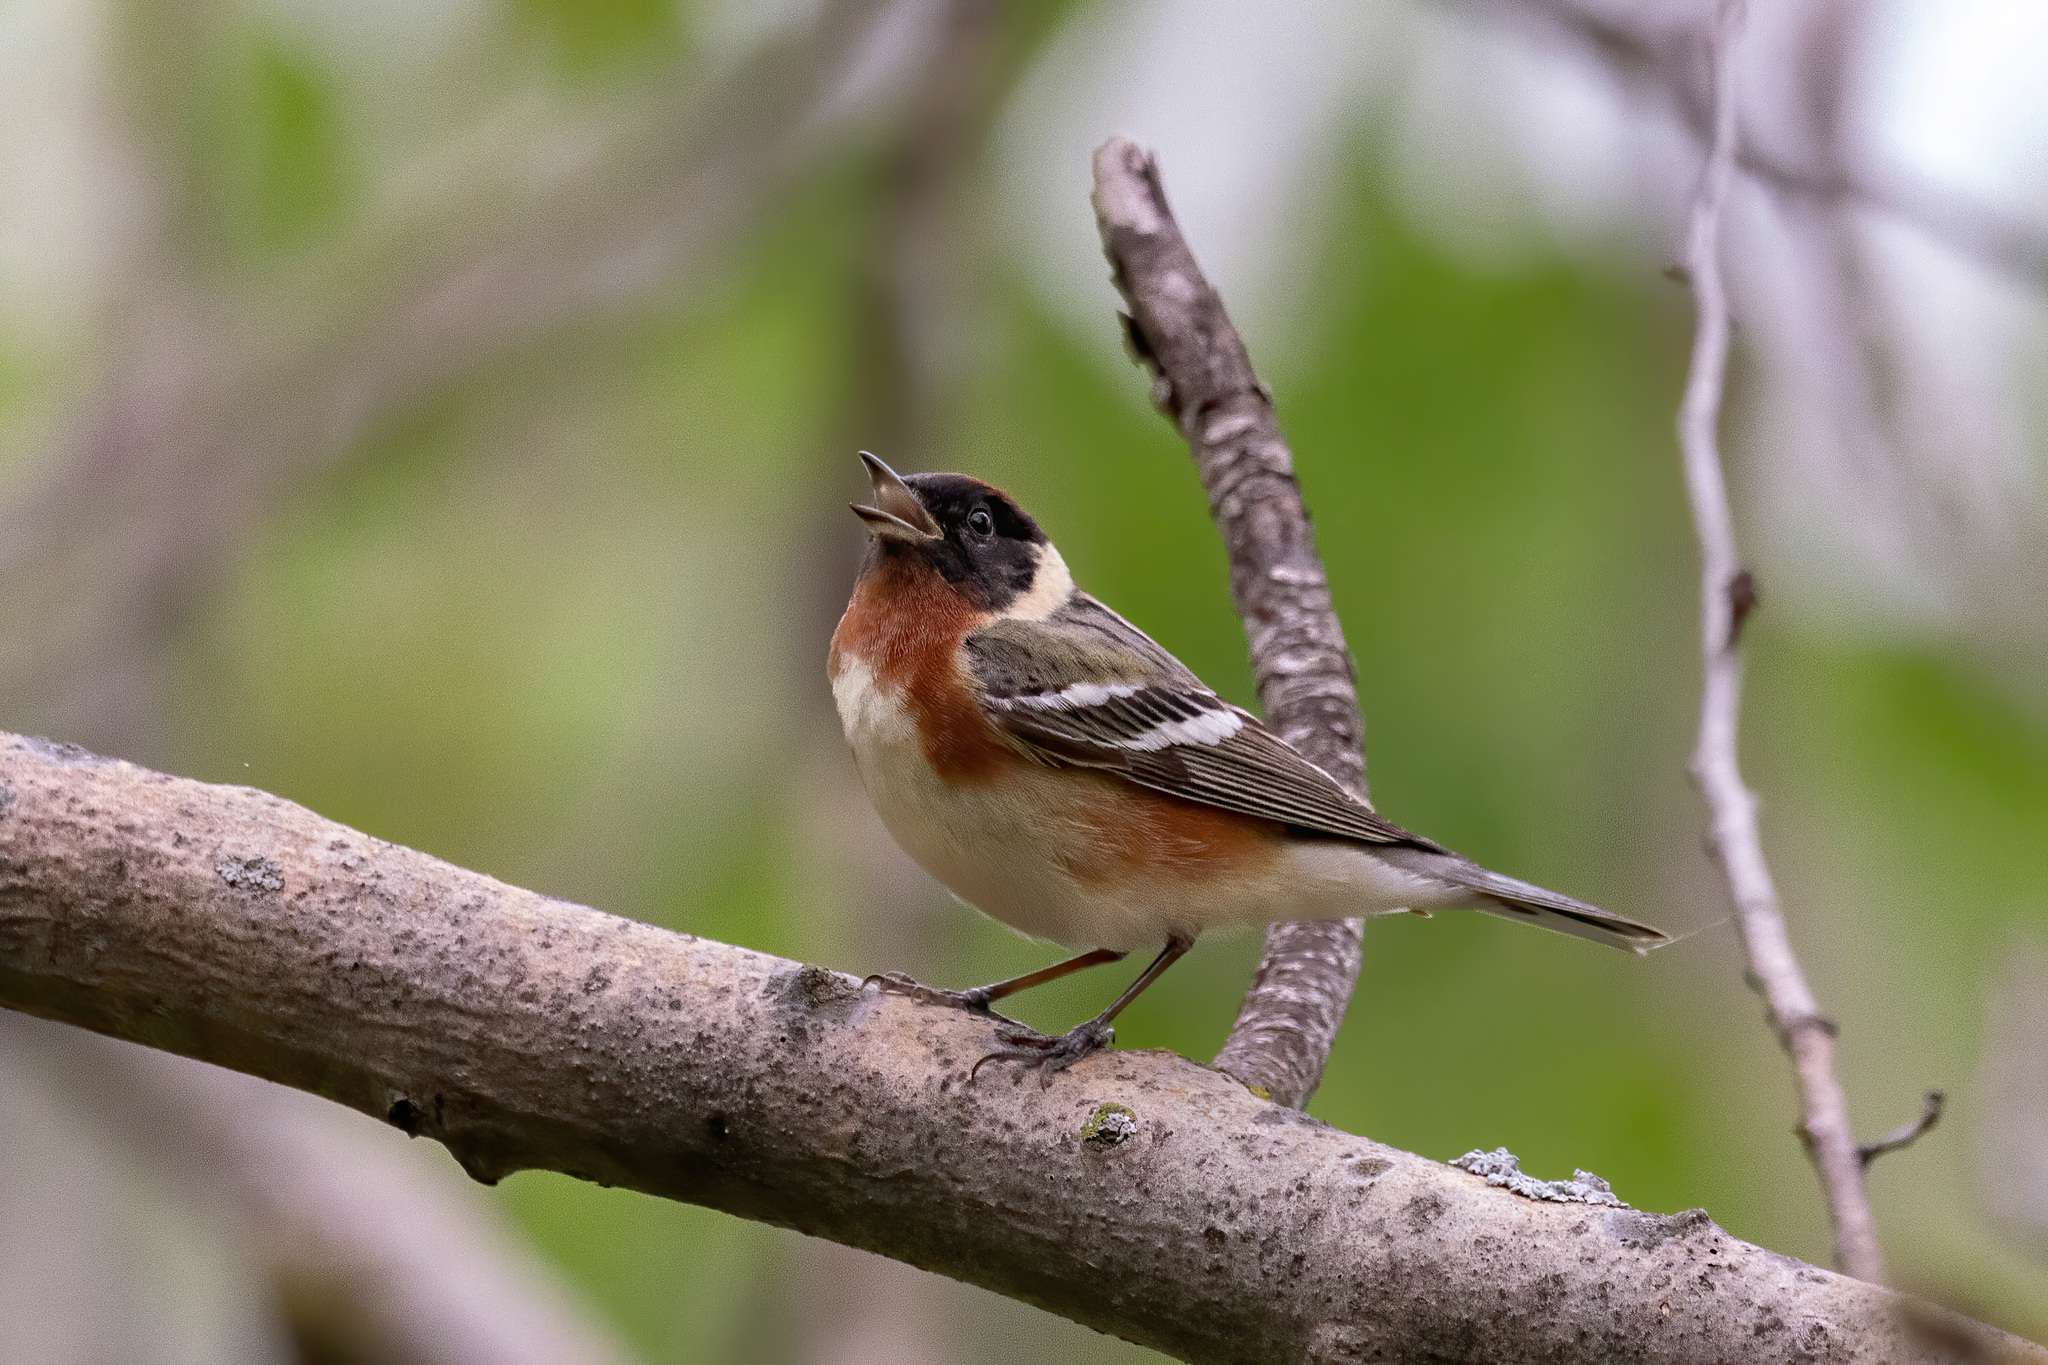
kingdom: Animalia
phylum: Chordata
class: Aves
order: Passeriformes
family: Parulidae
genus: Setophaga
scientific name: Setophaga castanea
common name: Bay-breasted warbler
